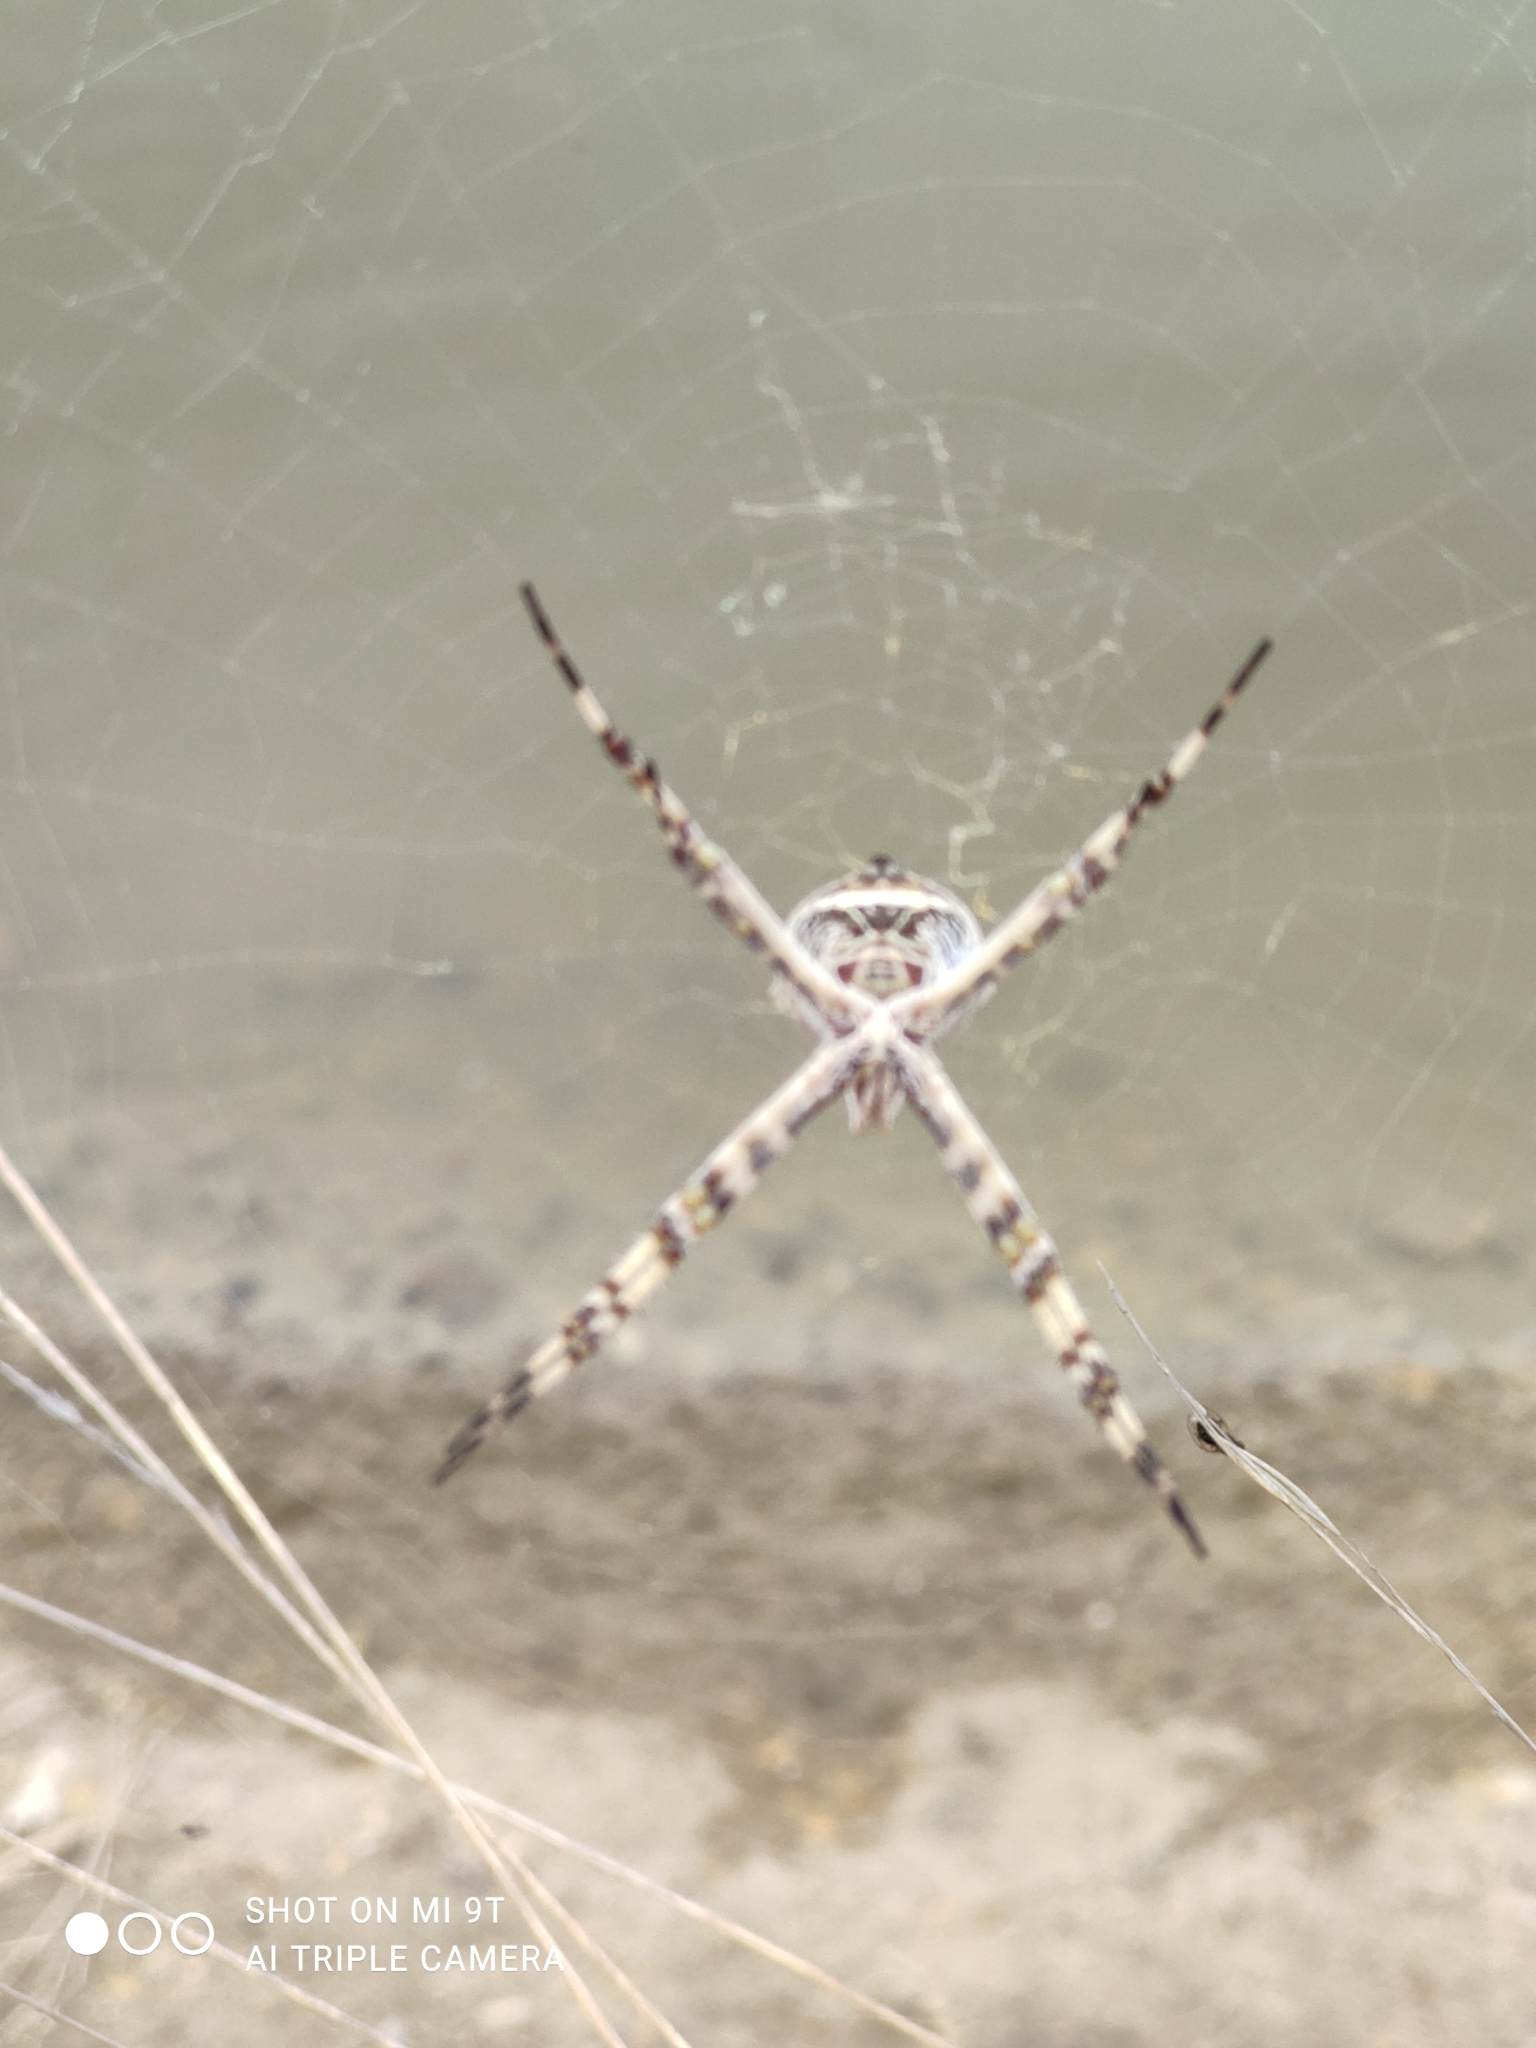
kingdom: Animalia
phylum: Arthropoda
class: Arachnida
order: Araneae
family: Araneidae
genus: Argiope
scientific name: Argiope argentata
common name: Orb weavers
